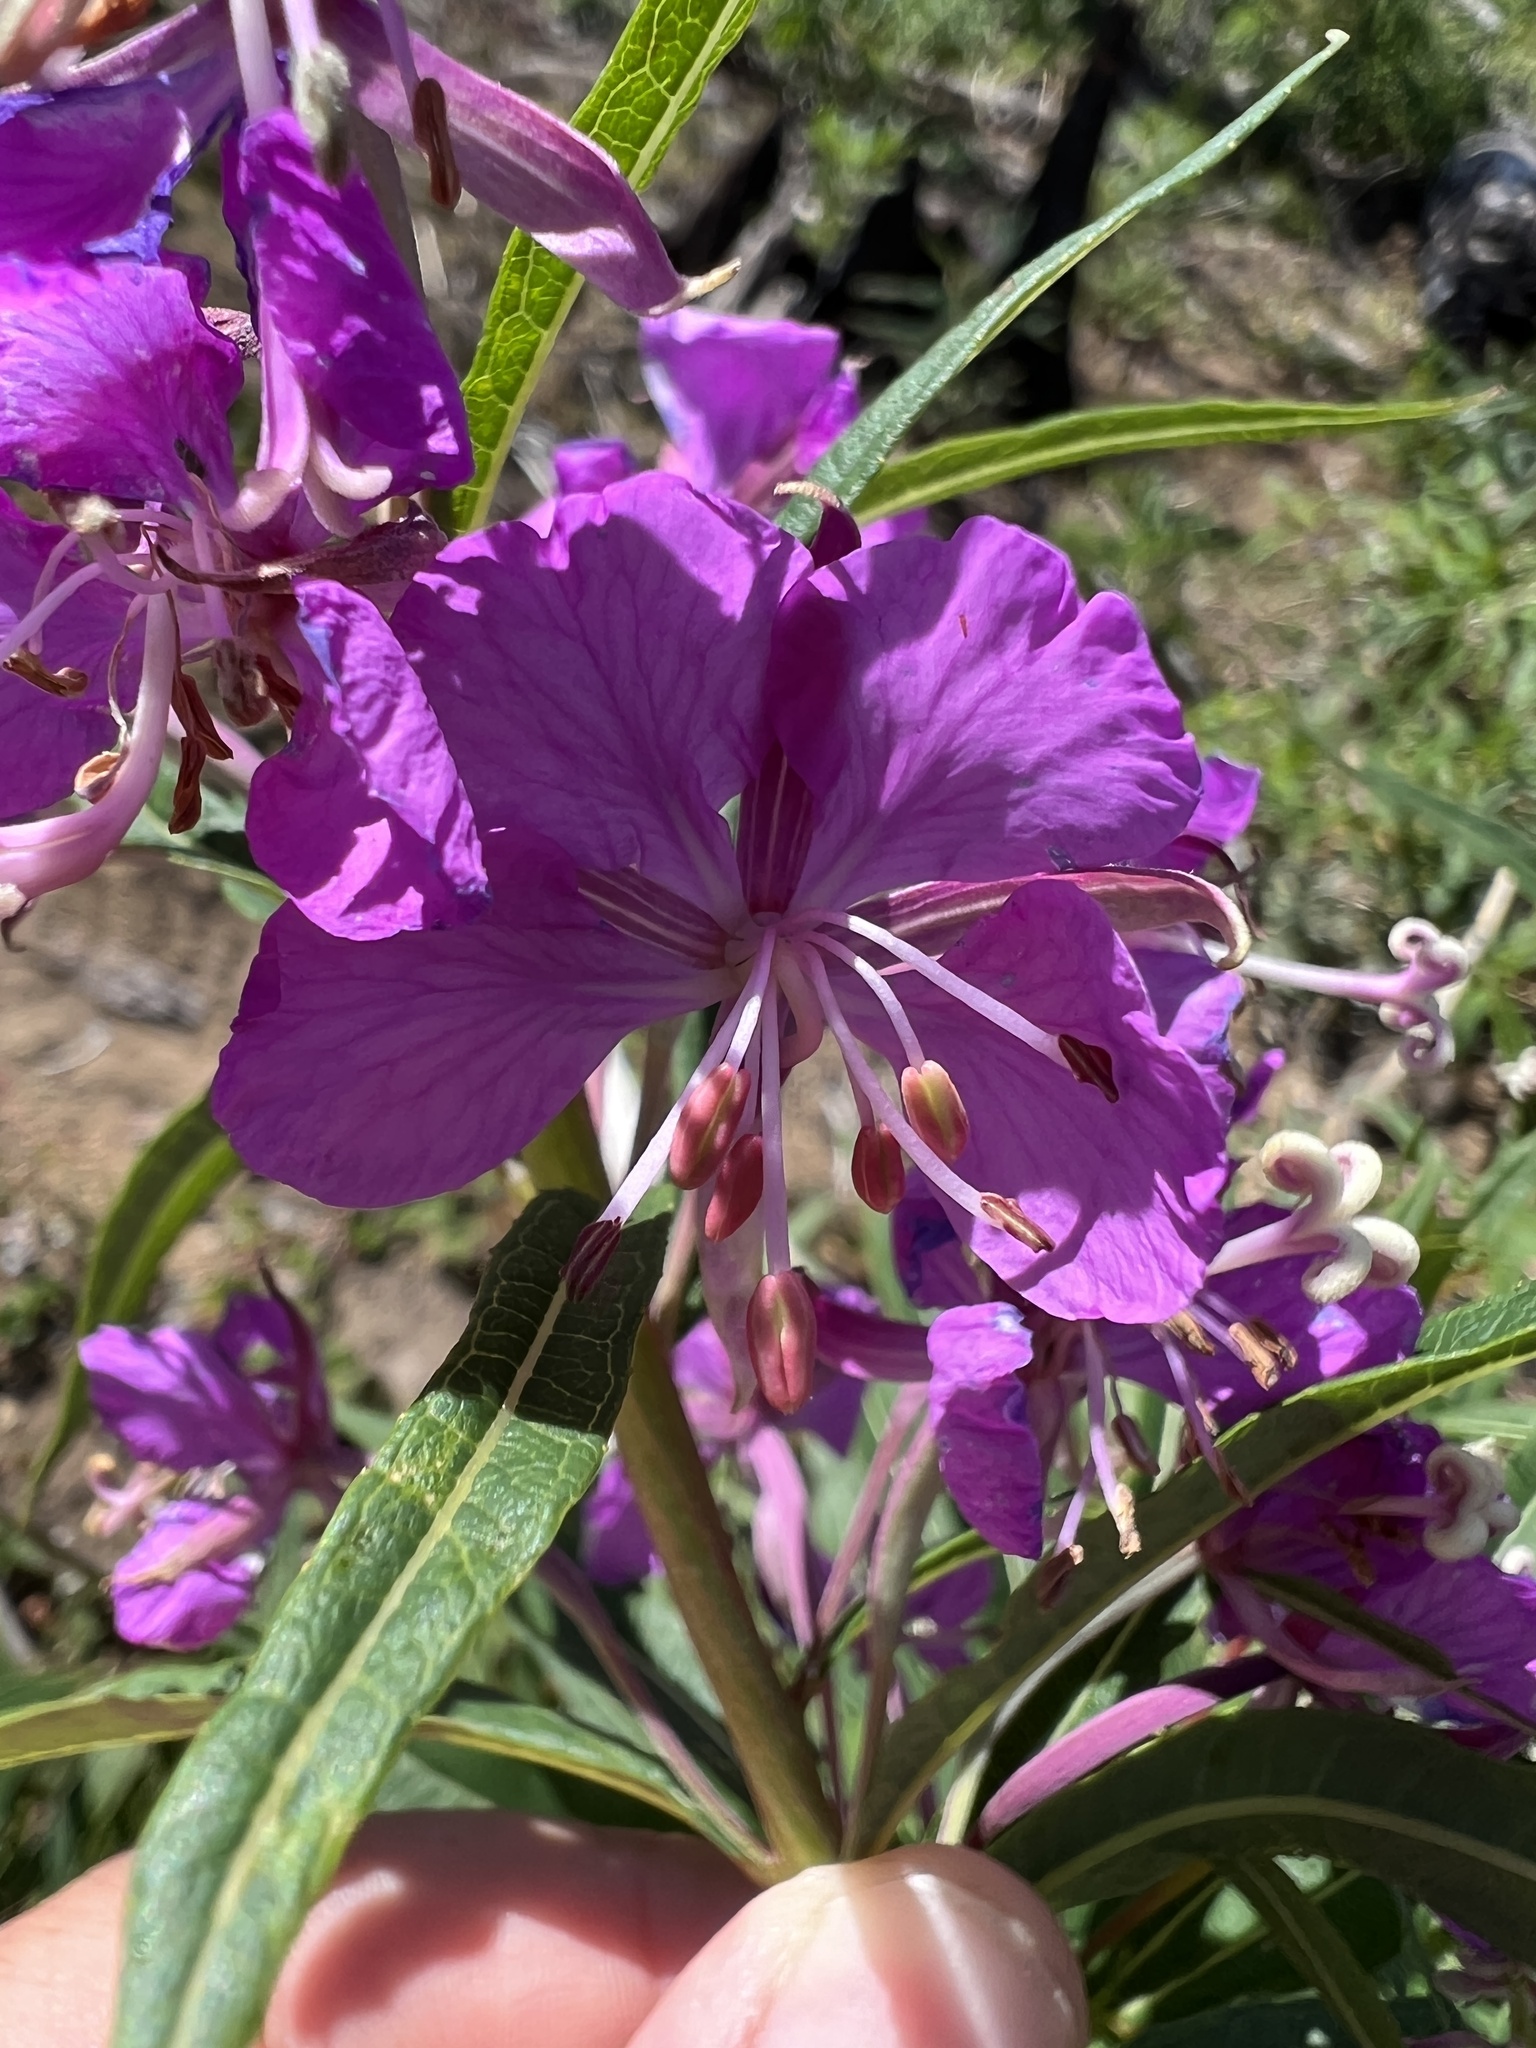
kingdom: Plantae
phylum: Tracheophyta
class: Magnoliopsida
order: Myrtales
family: Onagraceae
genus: Chamaenerion
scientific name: Chamaenerion angustifolium
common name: Fireweed
